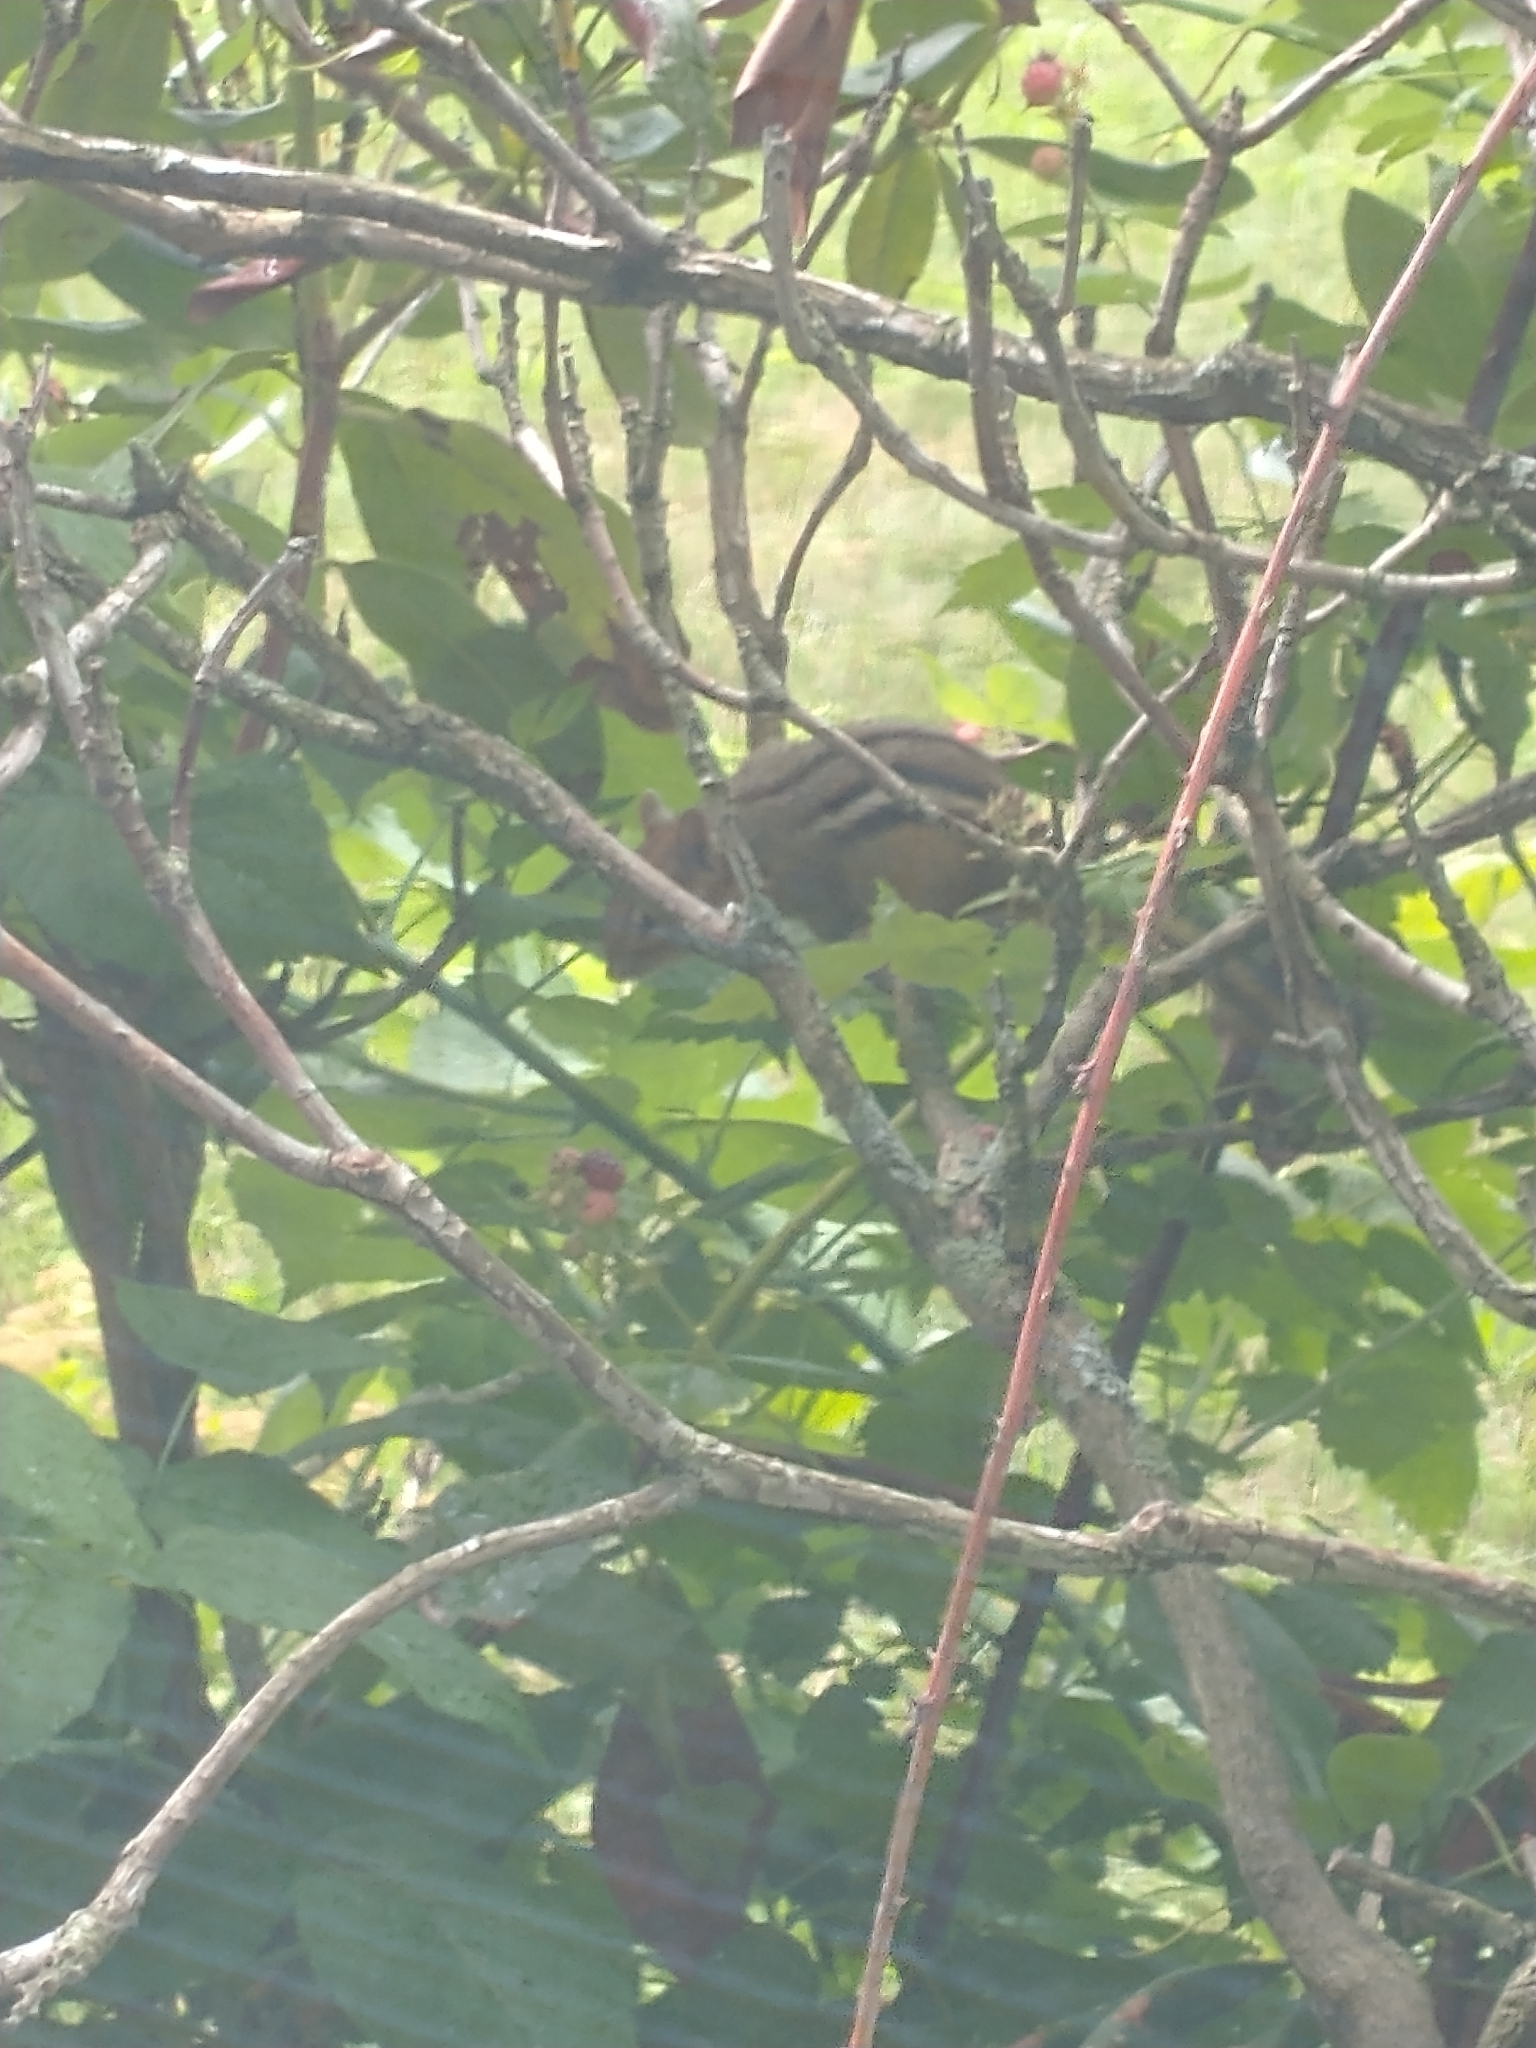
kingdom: Animalia
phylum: Chordata
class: Mammalia
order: Rodentia
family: Sciuridae
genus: Tamias
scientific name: Tamias striatus
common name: Eastern chipmunk
